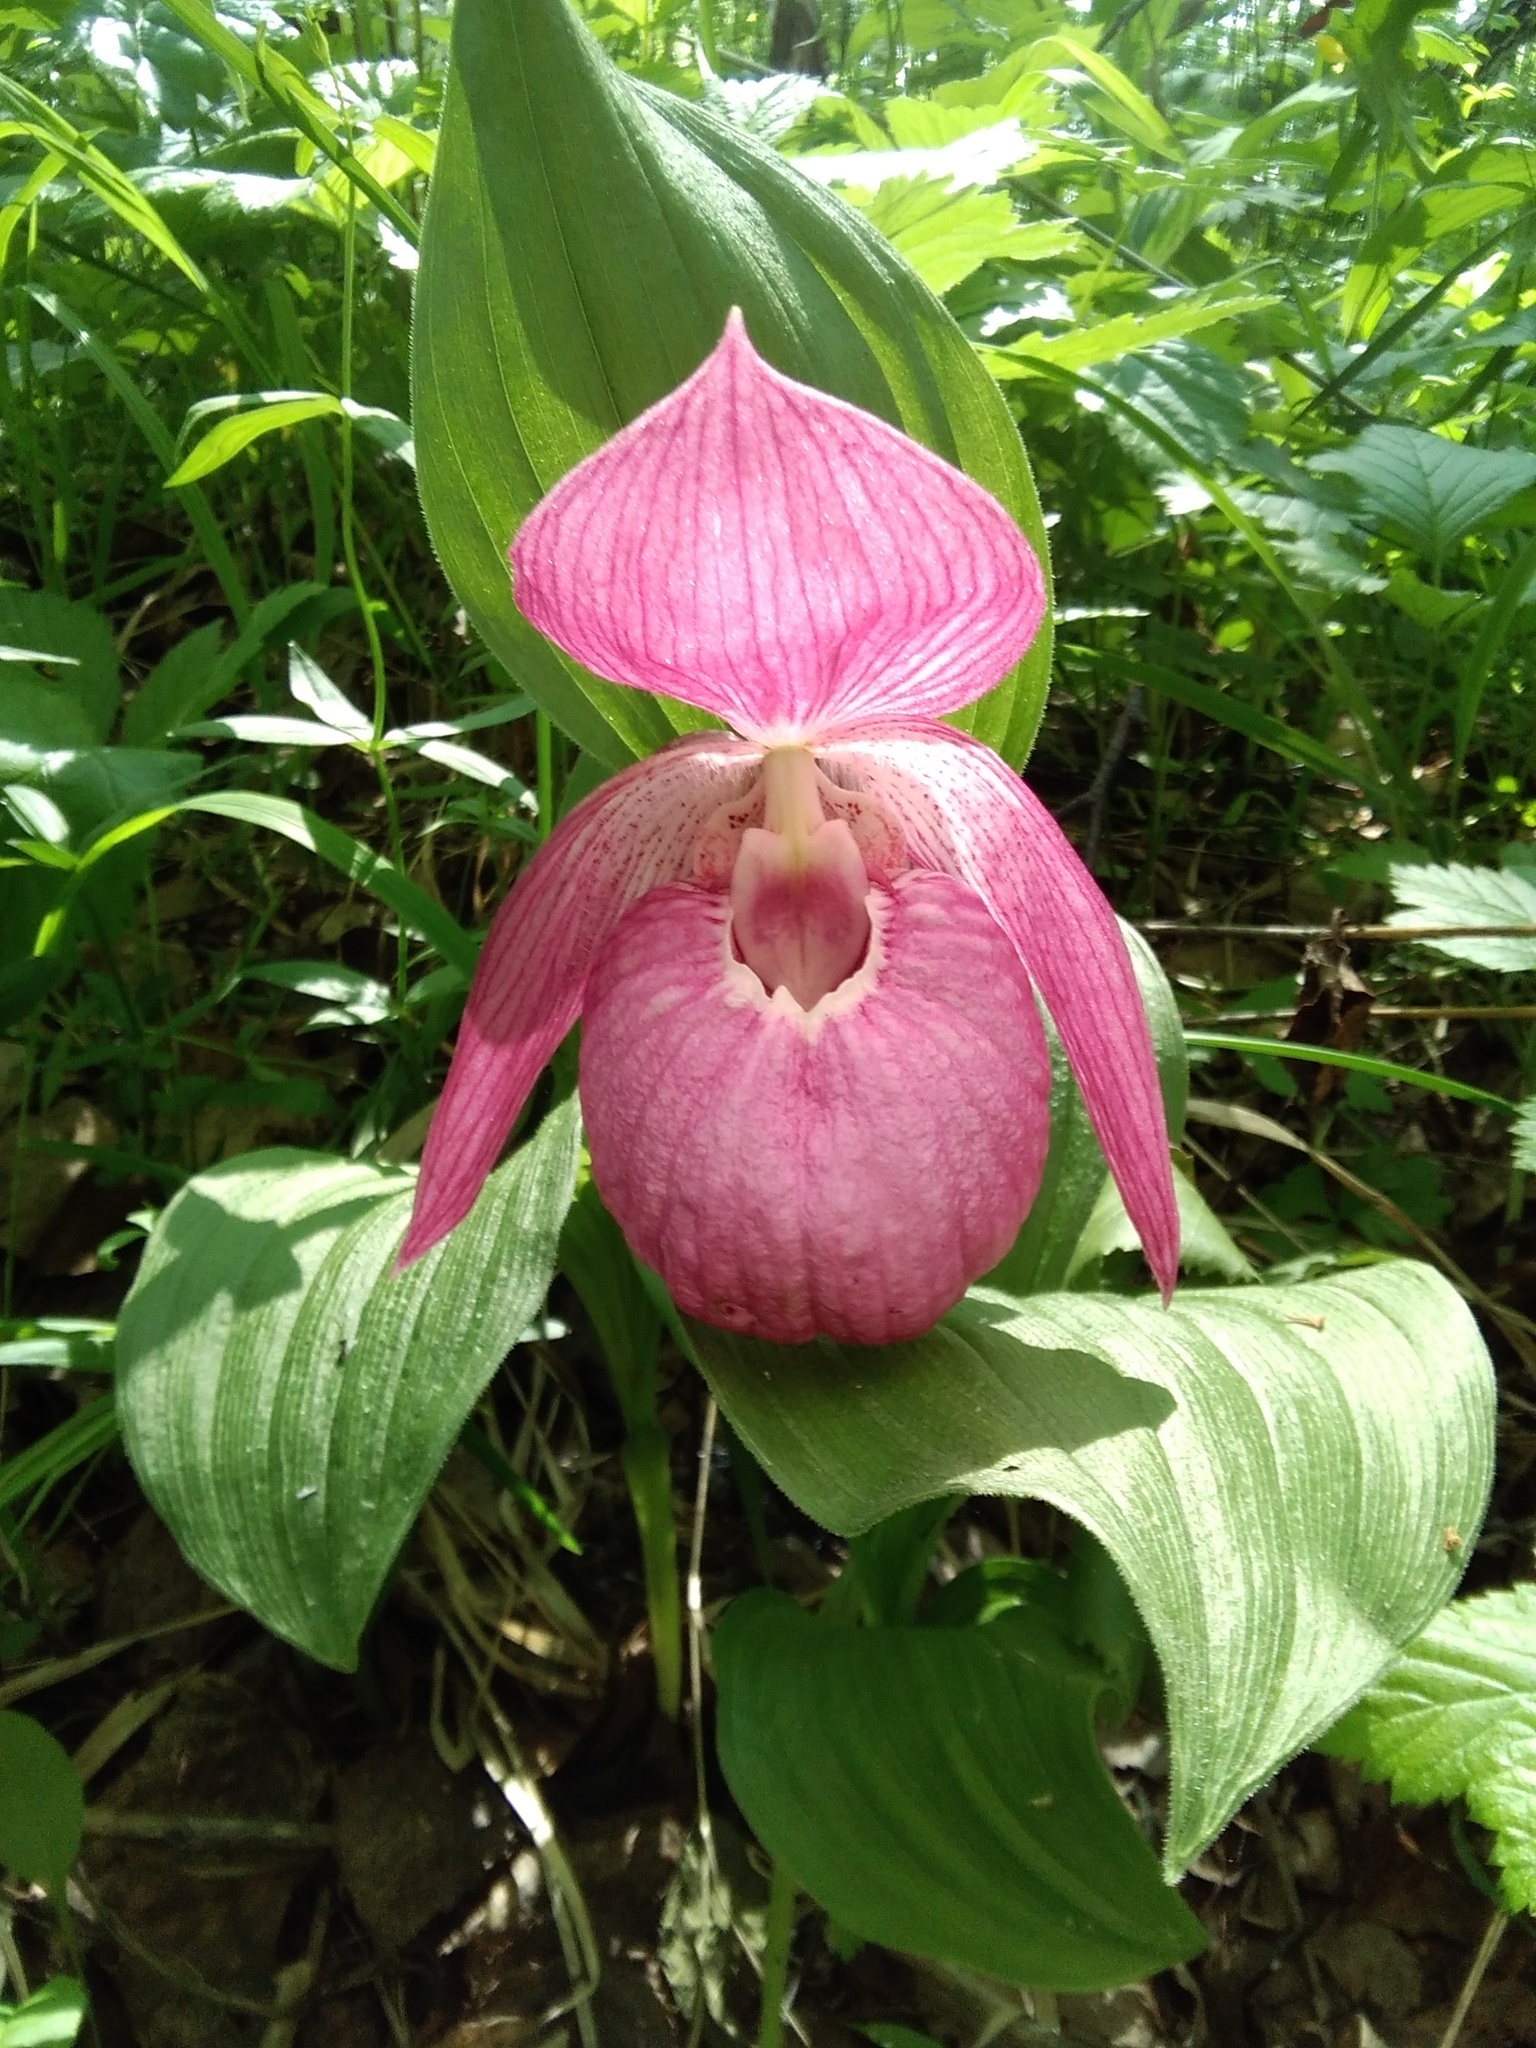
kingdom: Plantae
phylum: Tracheophyta
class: Liliopsida
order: Asparagales
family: Orchidaceae
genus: Cypripedium
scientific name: Cypripedium macranthos
